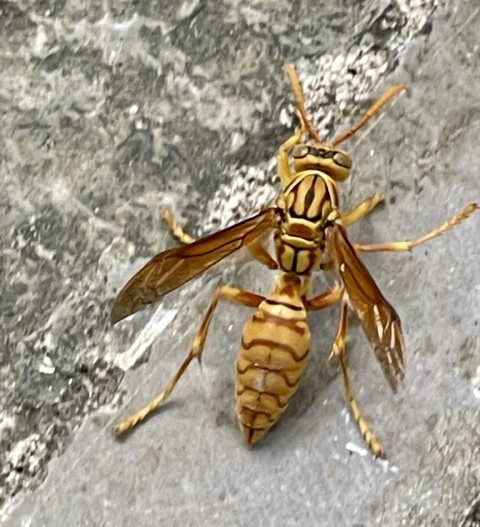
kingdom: Animalia
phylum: Arthropoda
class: Insecta
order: Hymenoptera
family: Eumenidae
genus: Polistes
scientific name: Polistes olivaceus
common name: Paper wasp
